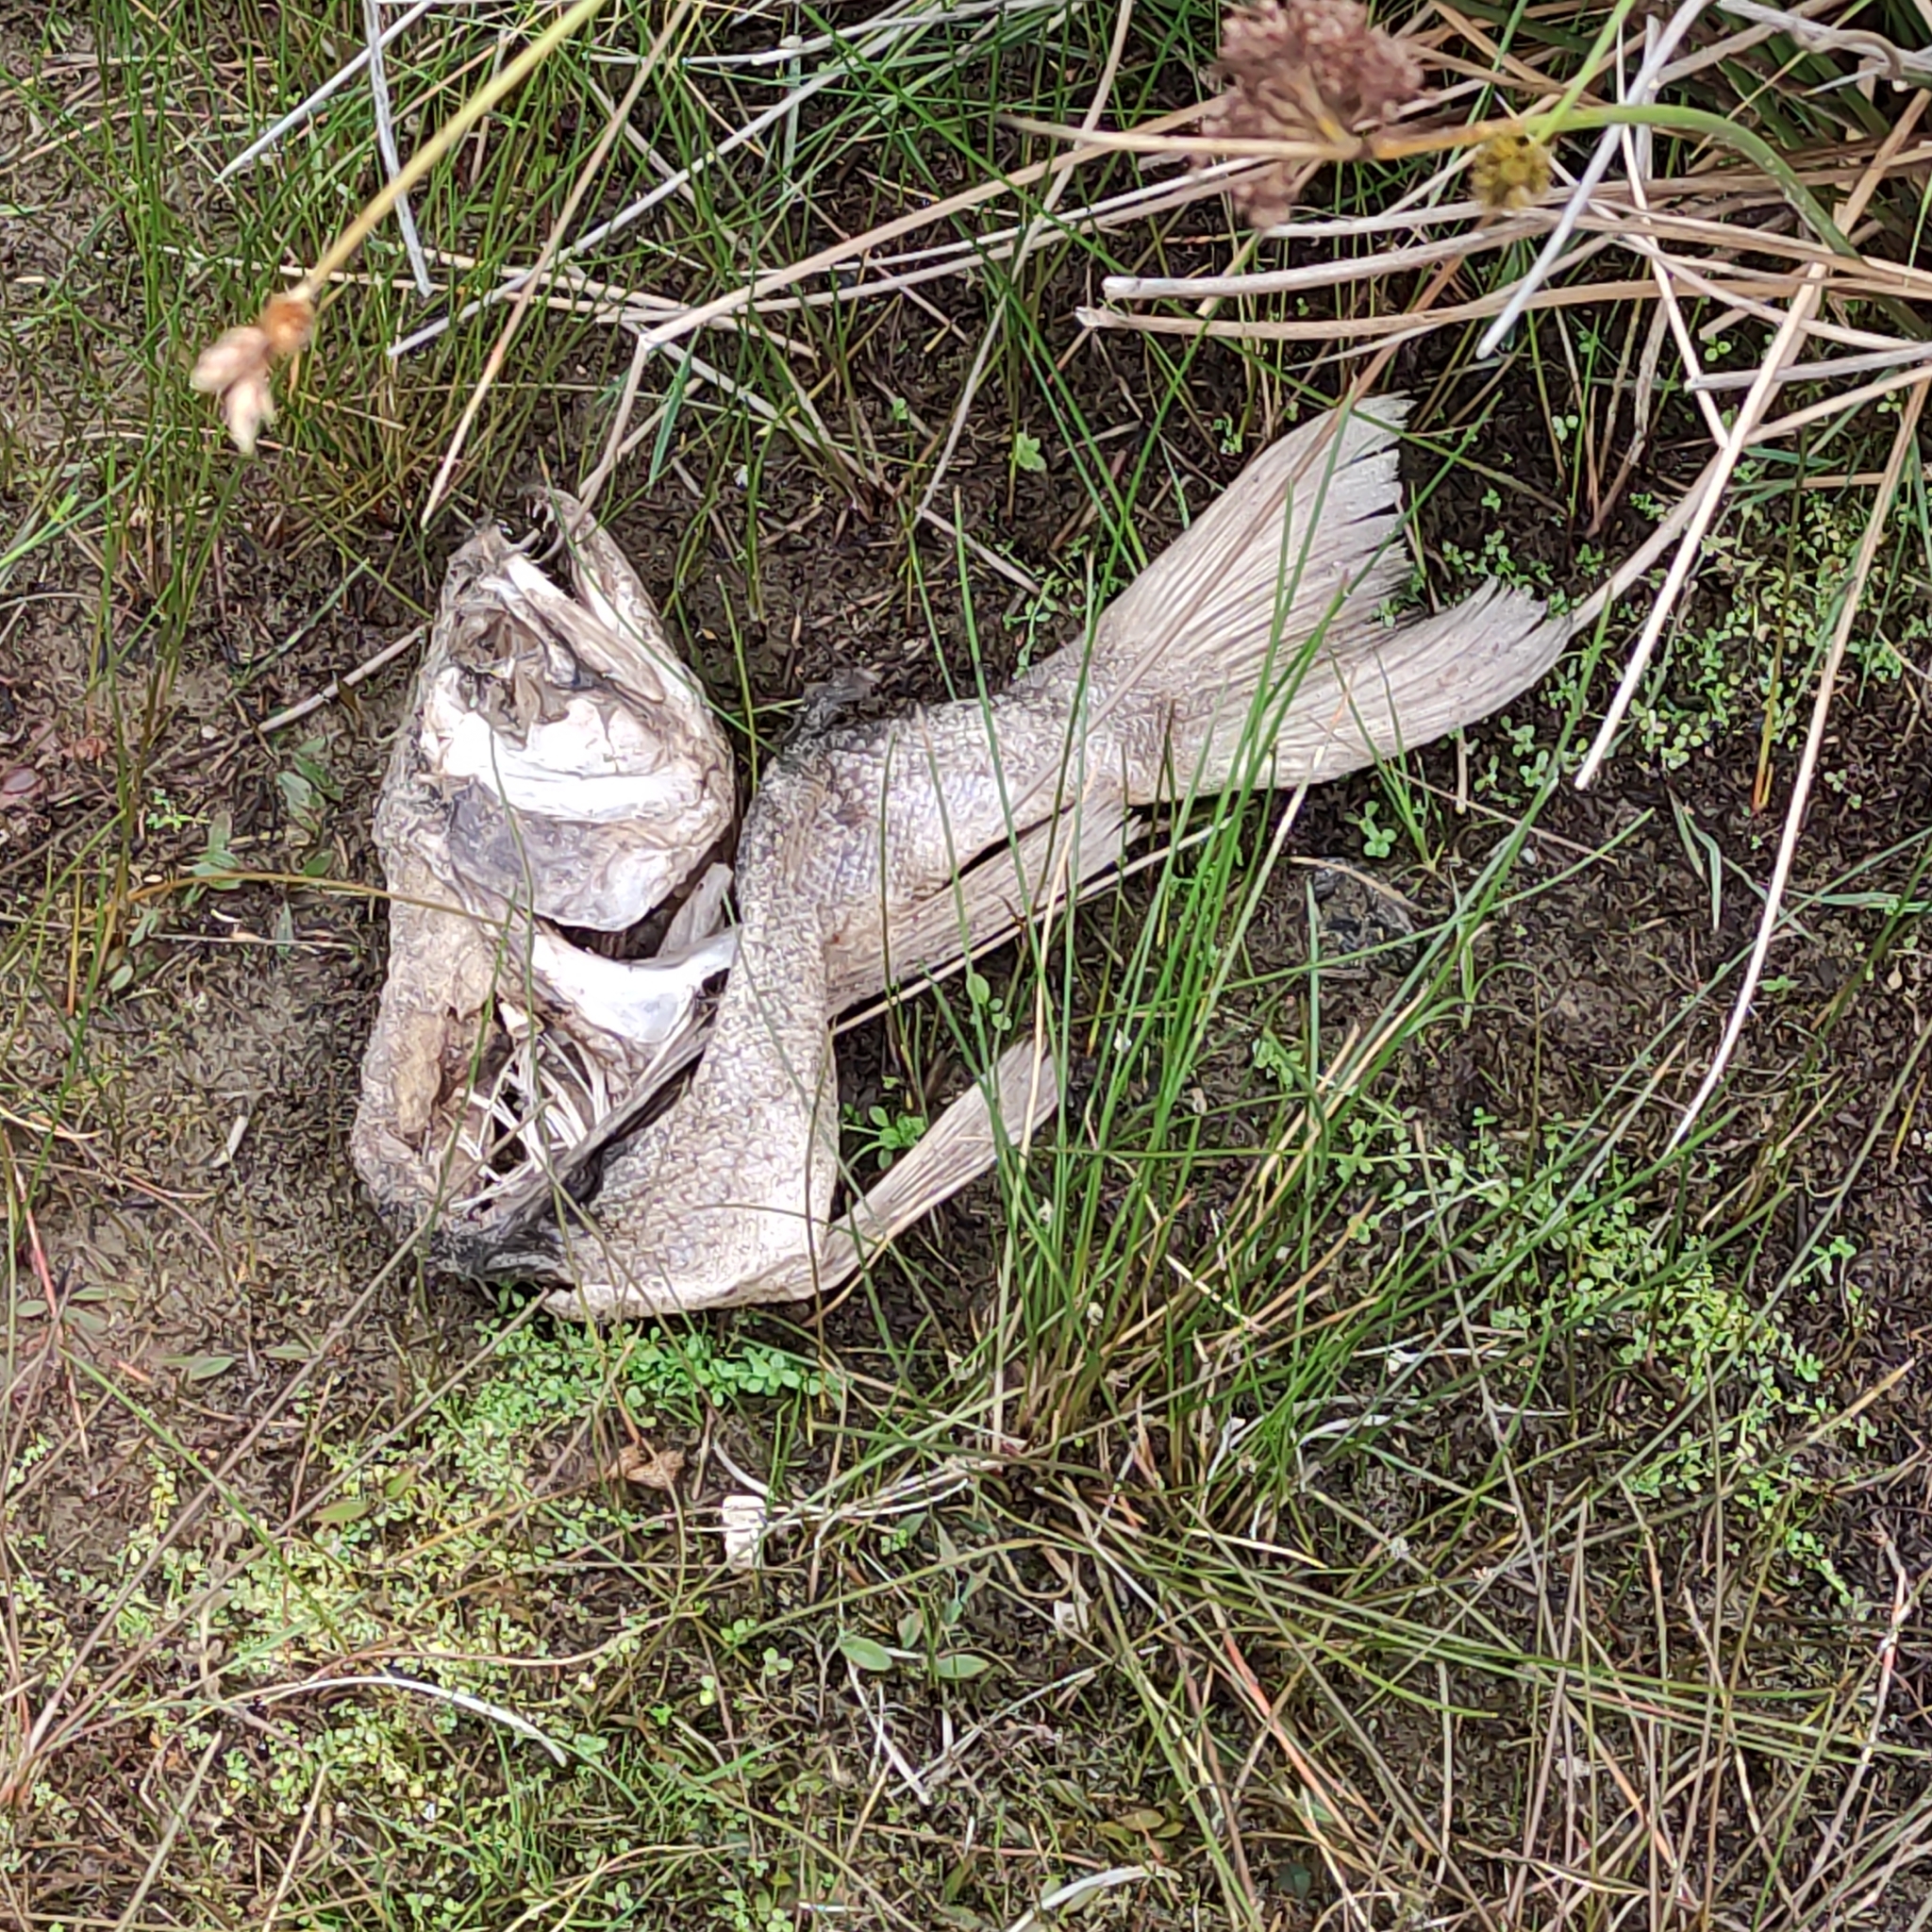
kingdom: Animalia
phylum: Chordata
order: Salmoniformes
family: Salmonidae
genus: Salmo
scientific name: Salmo trutta
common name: Brown trout
